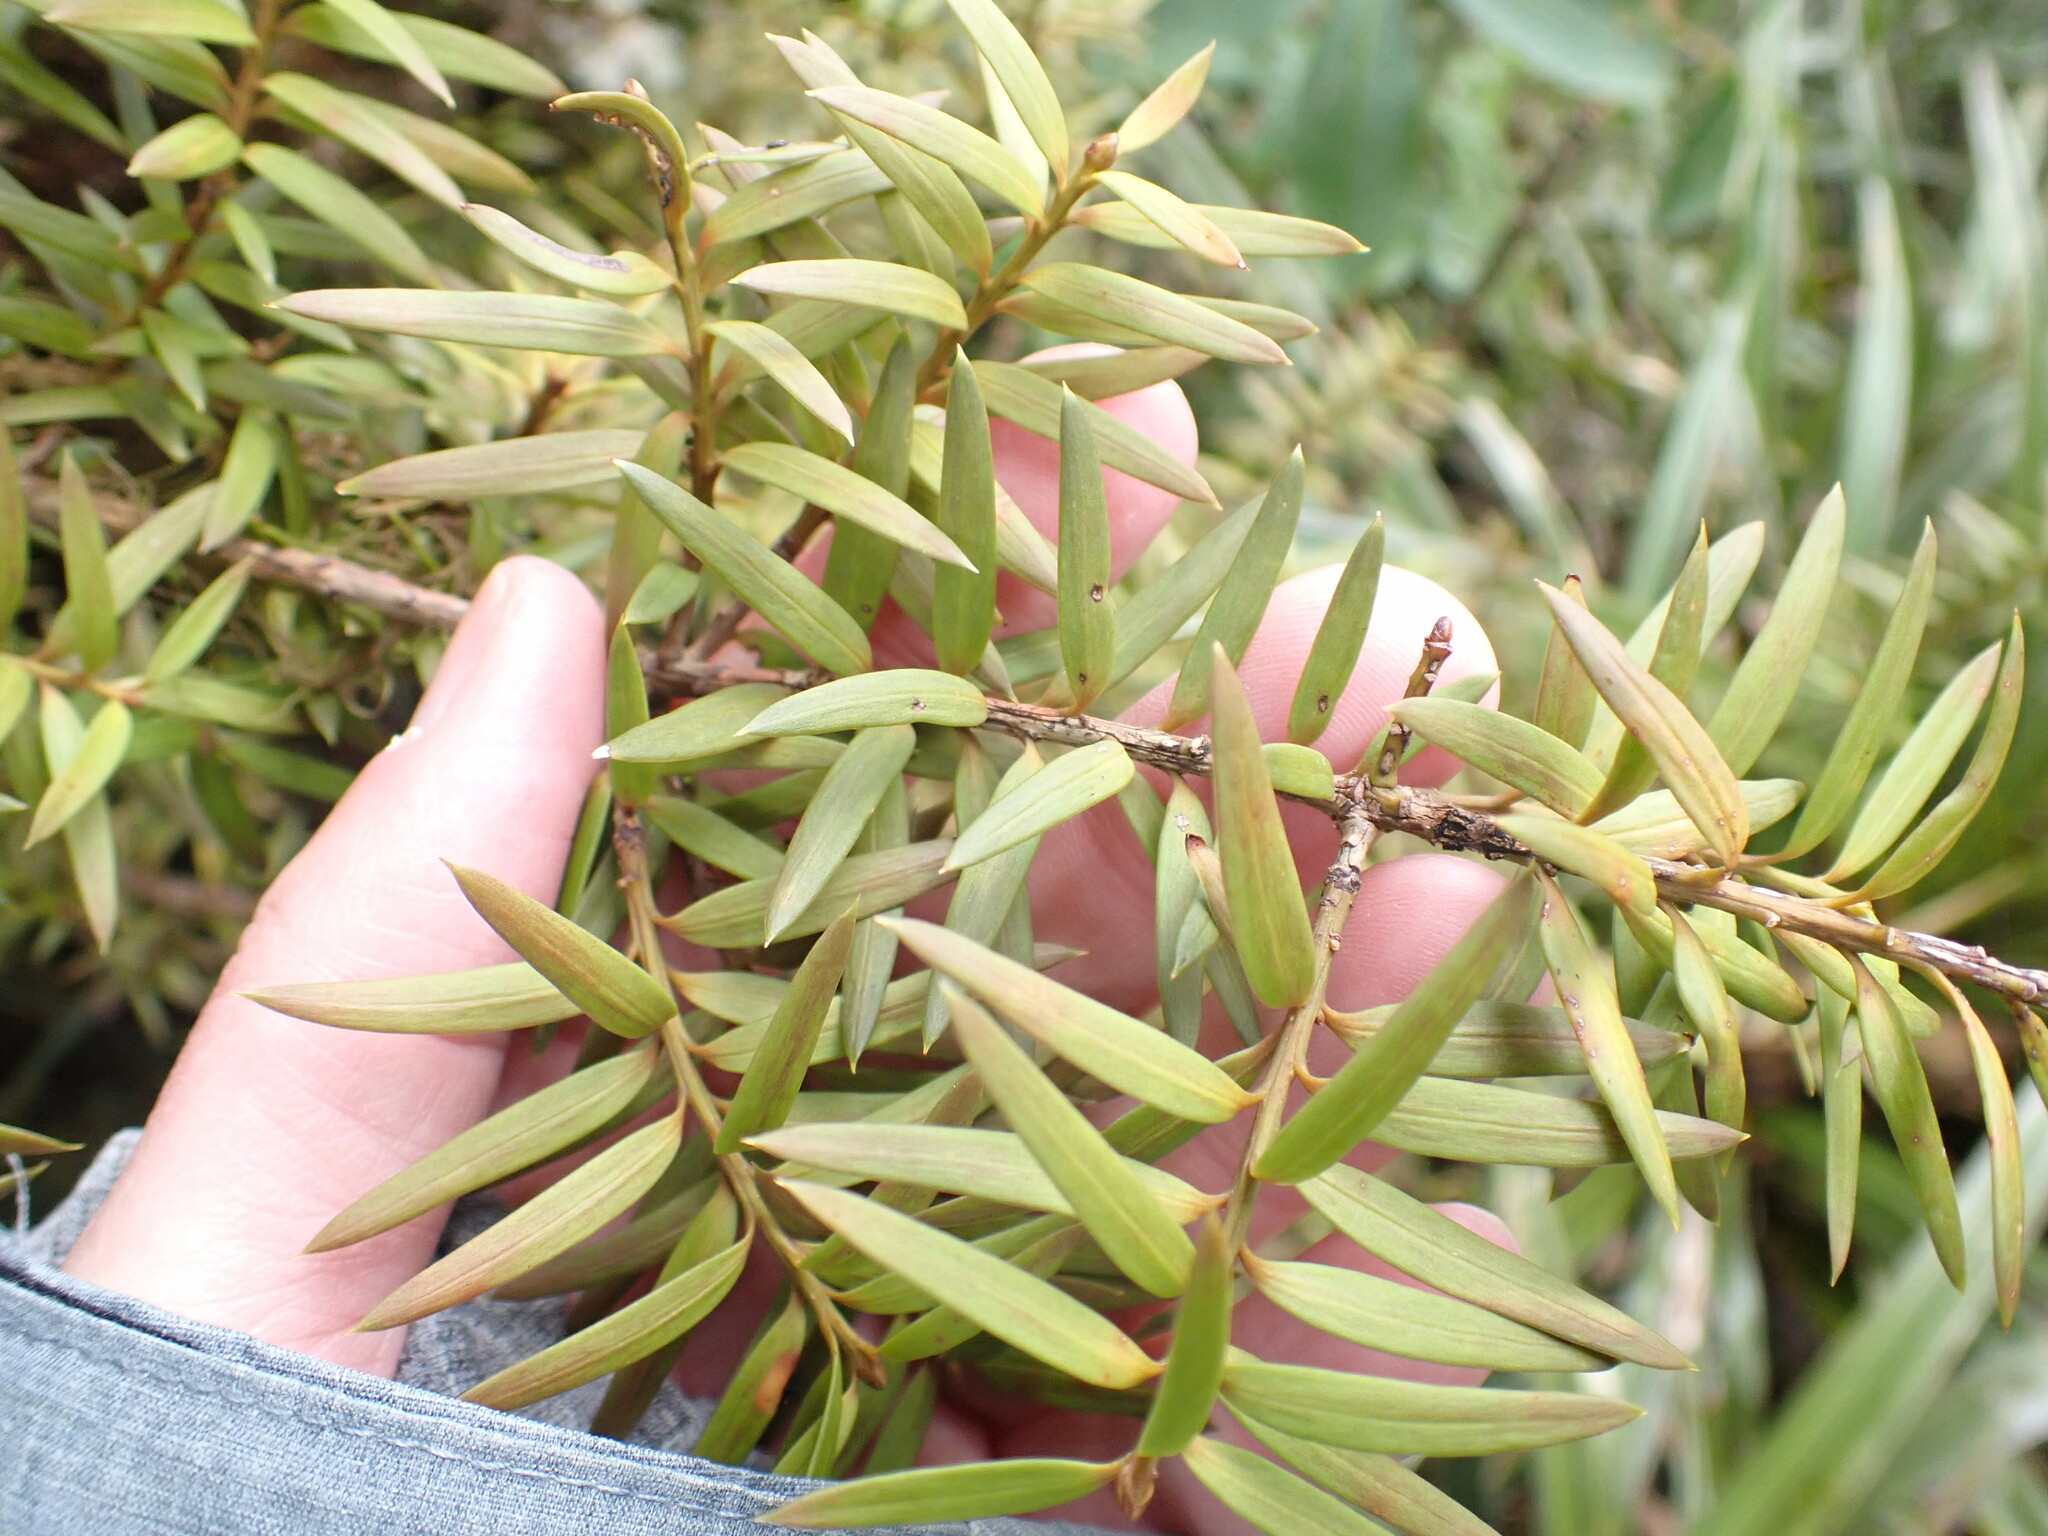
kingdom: Plantae
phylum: Tracheophyta
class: Pinopsida
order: Pinales
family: Podocarpaceae
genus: Podocarpus
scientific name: Podocarpus laetus
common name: Hall's totara
